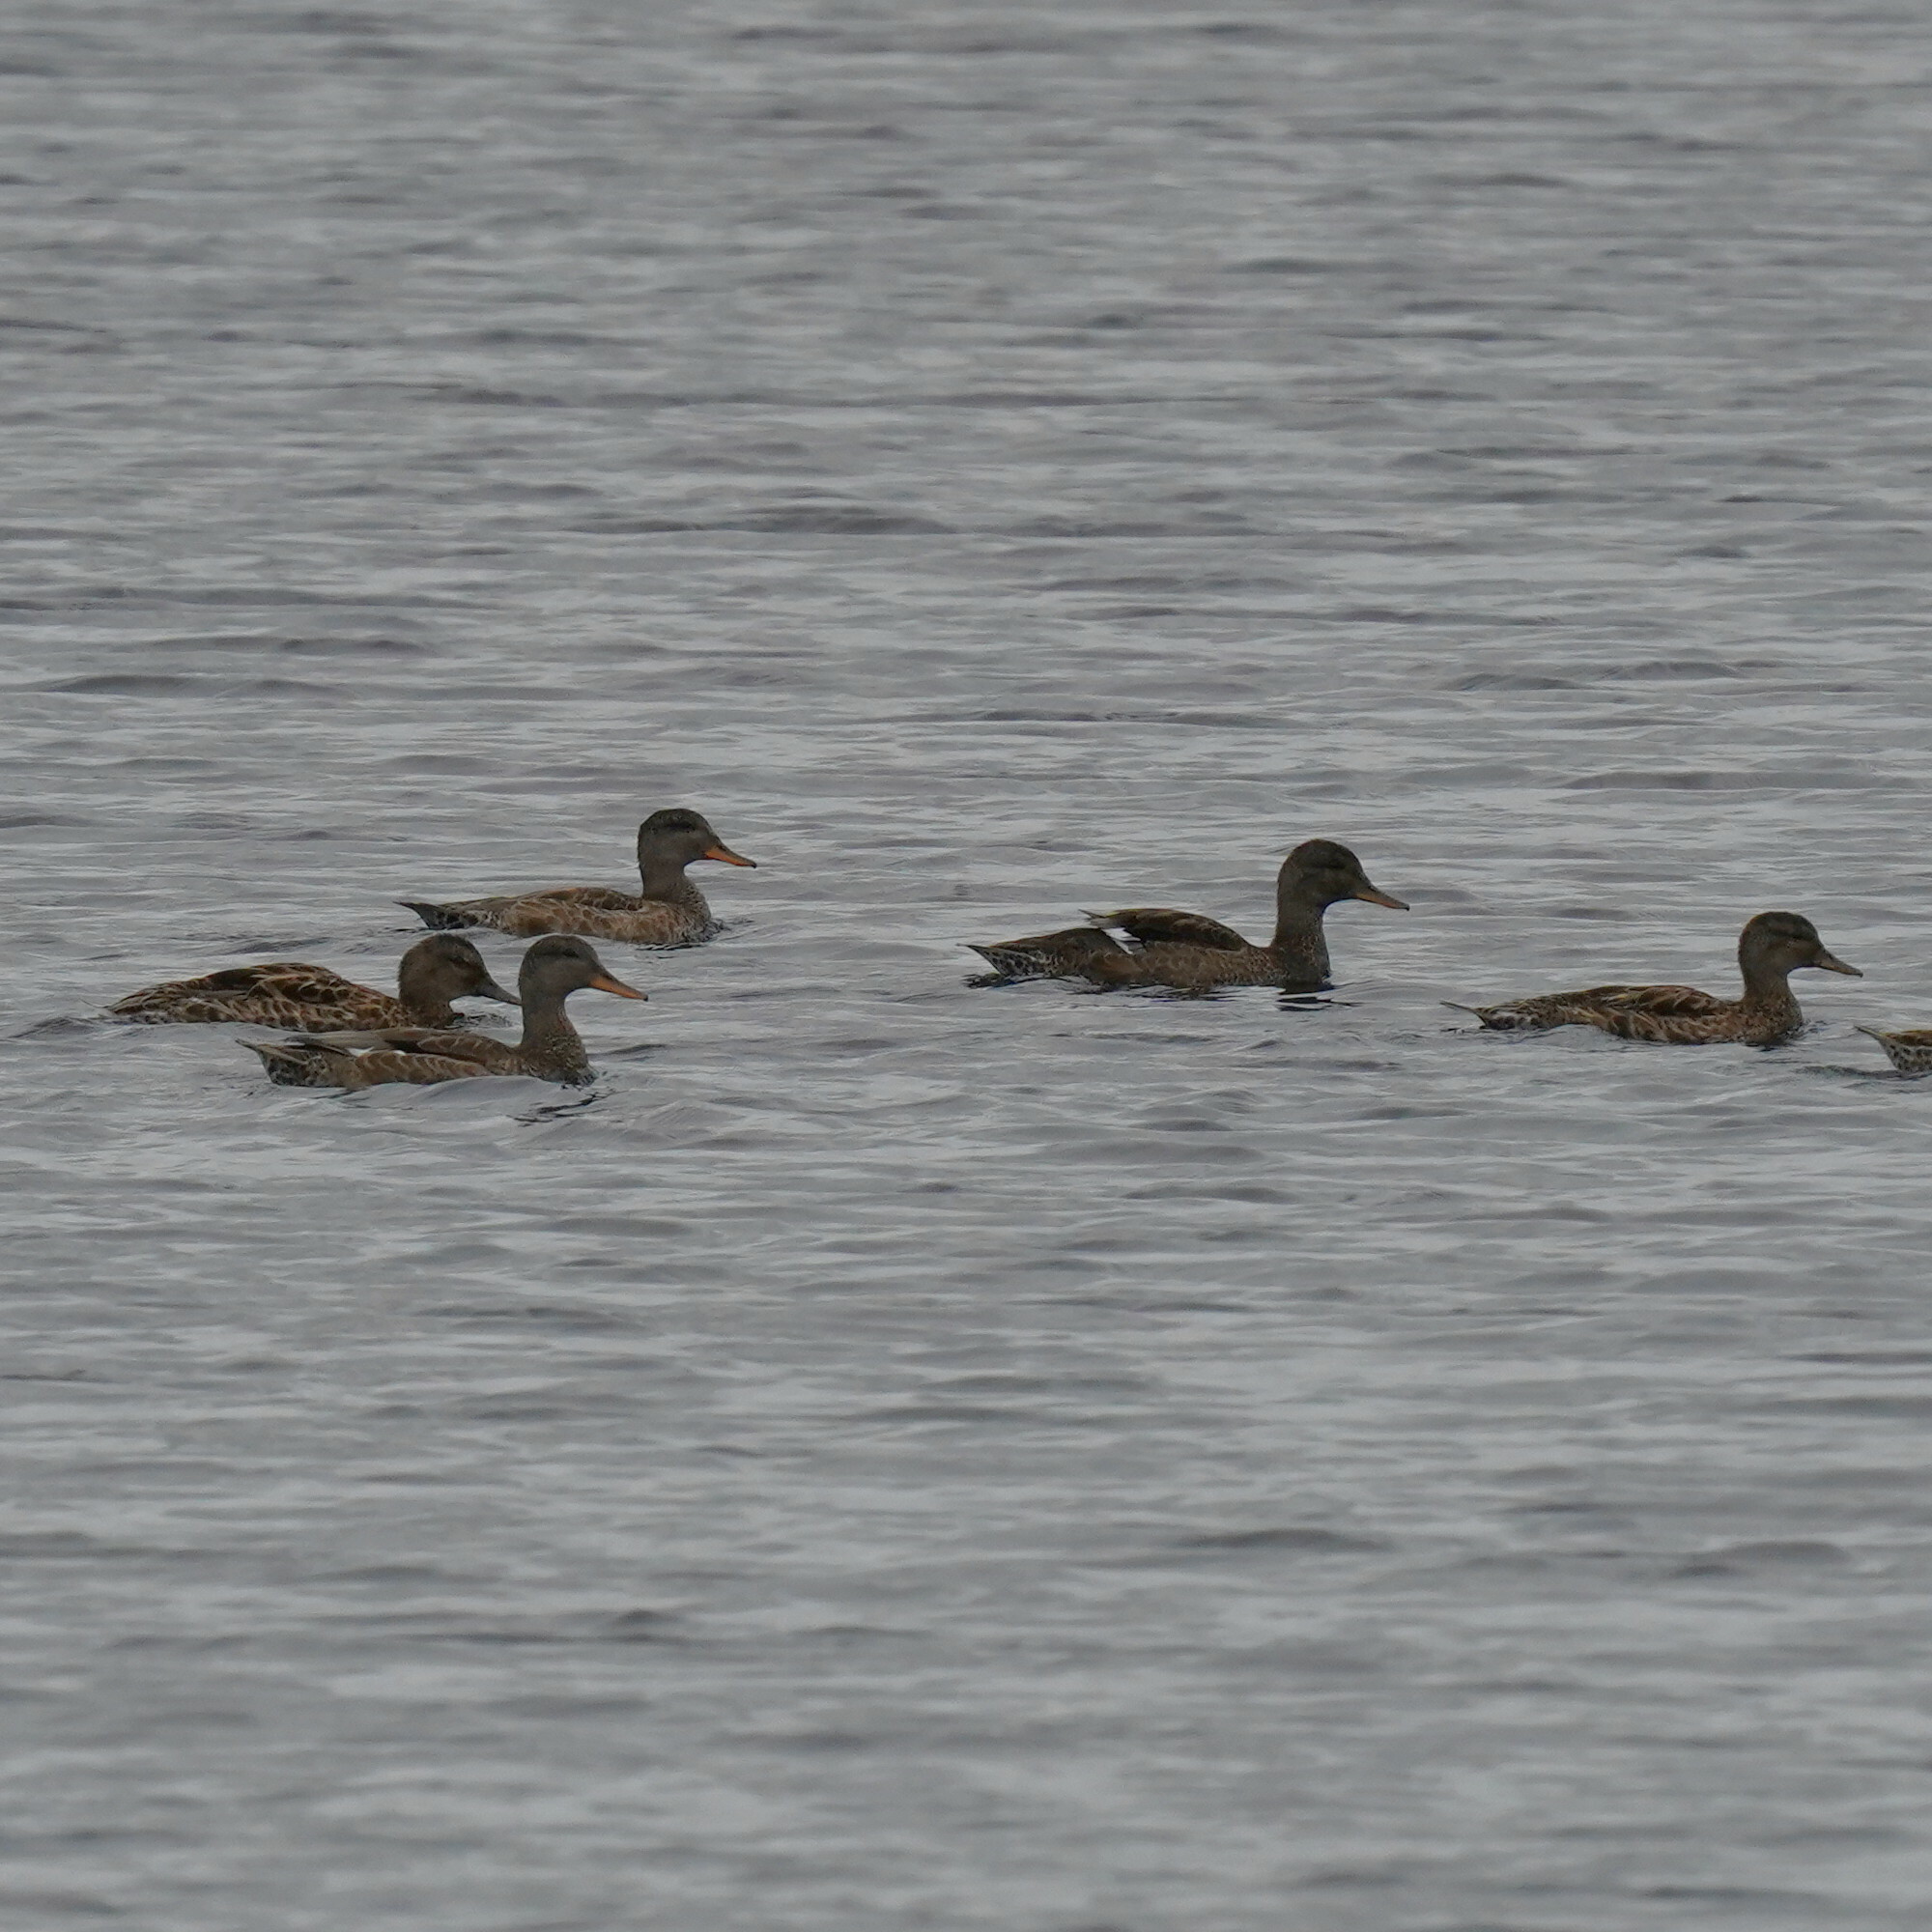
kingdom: Animalia
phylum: Chordata
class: Aves
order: Anseriformes
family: Anatidae
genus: Mareca
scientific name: Mareca strepera
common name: Gadwall
